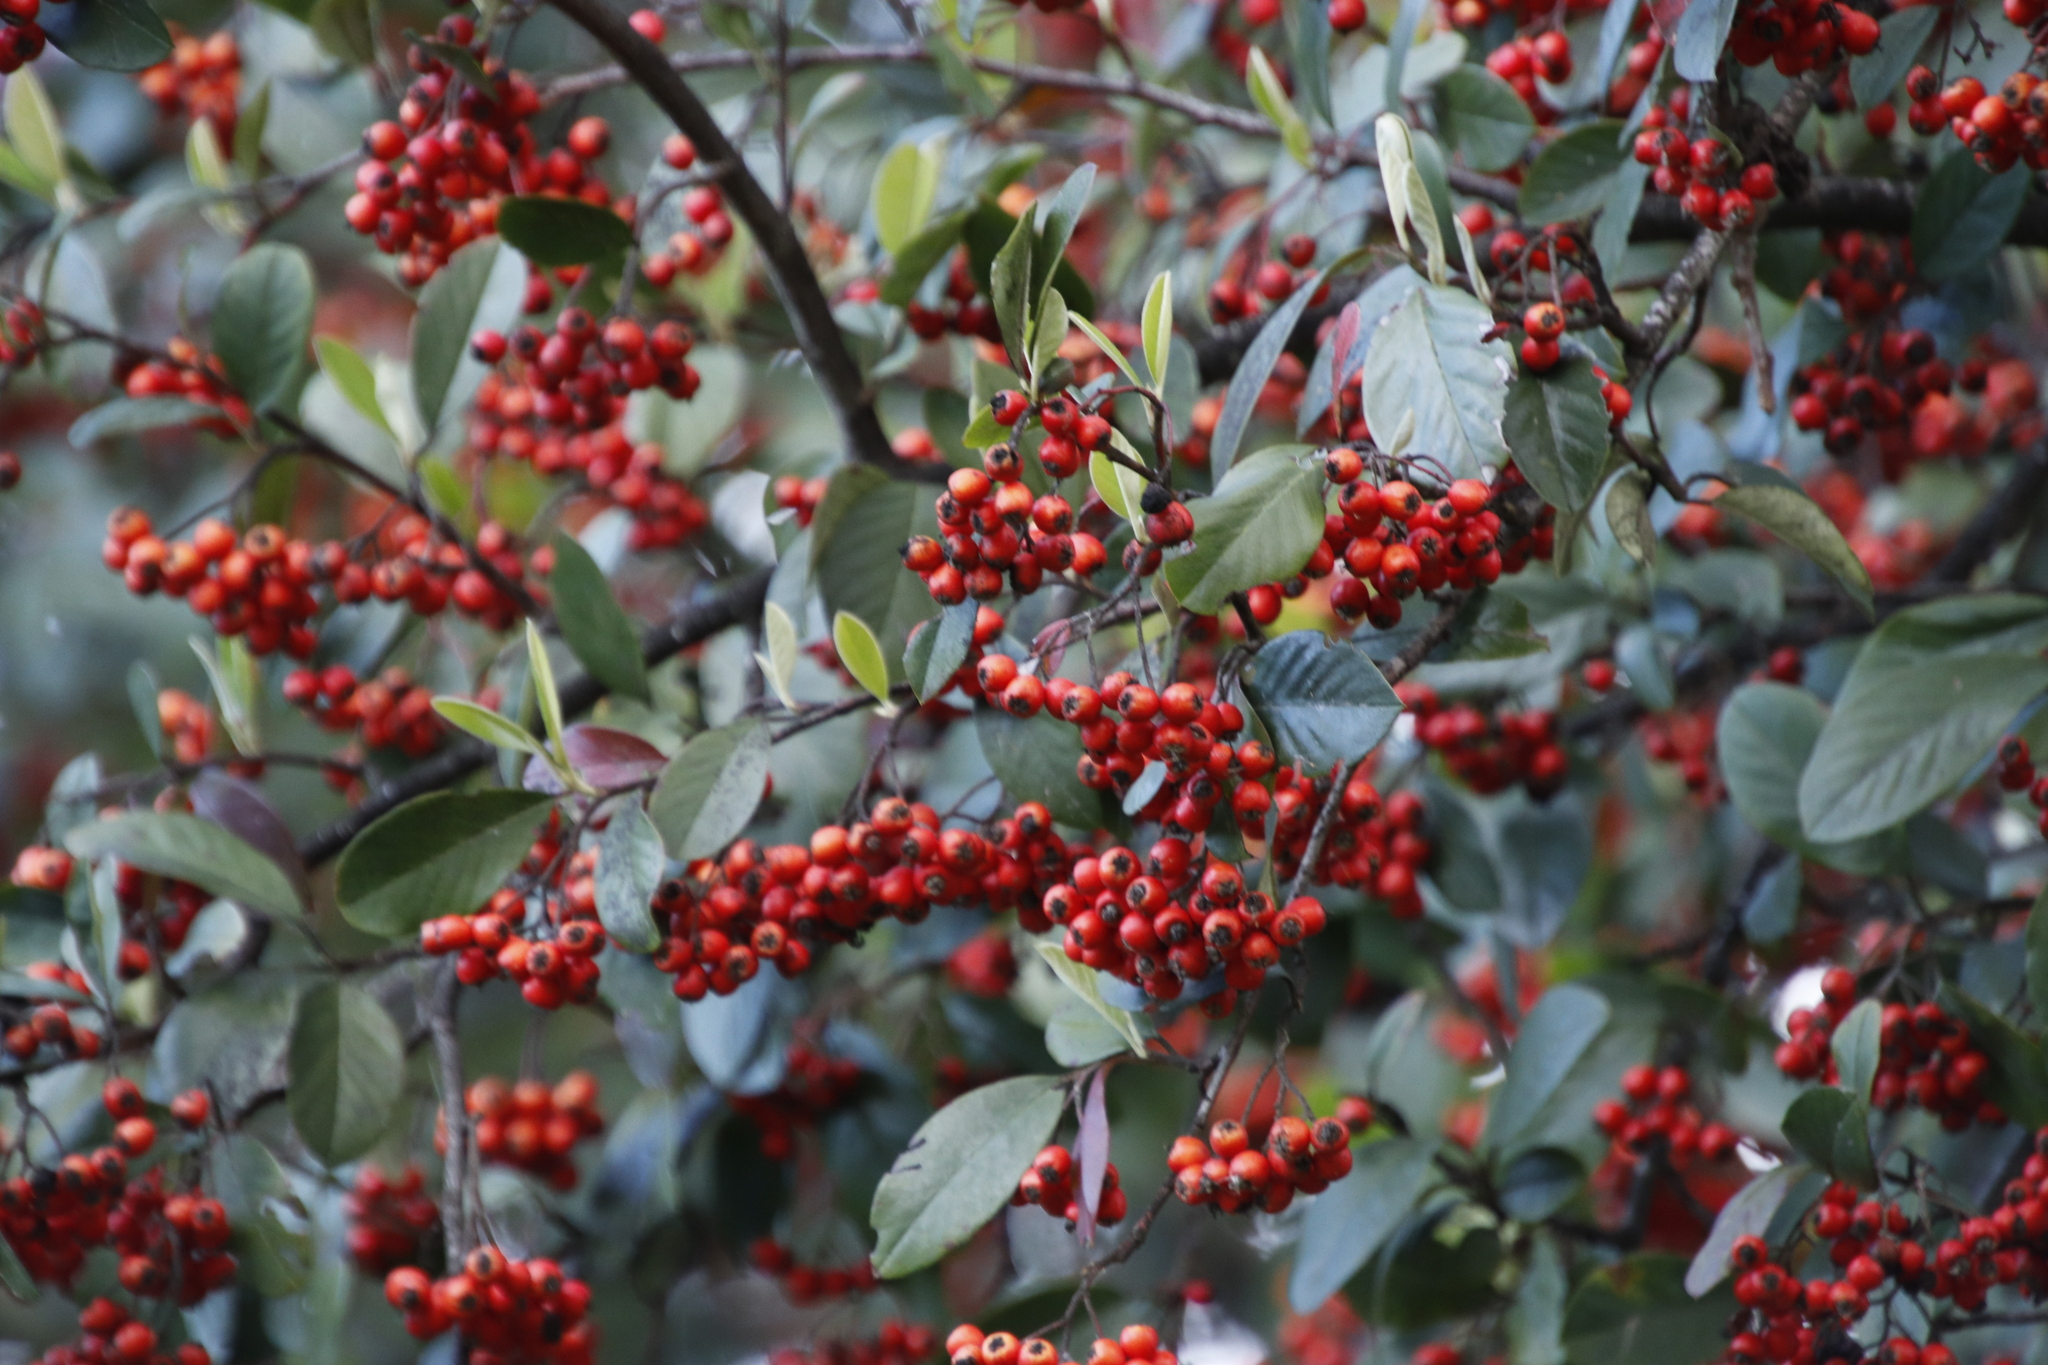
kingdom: Plantae
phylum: Tracheophyta
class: Magnoliopsida
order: Rosales
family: Rosaceae
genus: Cotoneaster
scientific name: Cotoneaster glaucophyllus
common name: Glaucous cotoneaster
